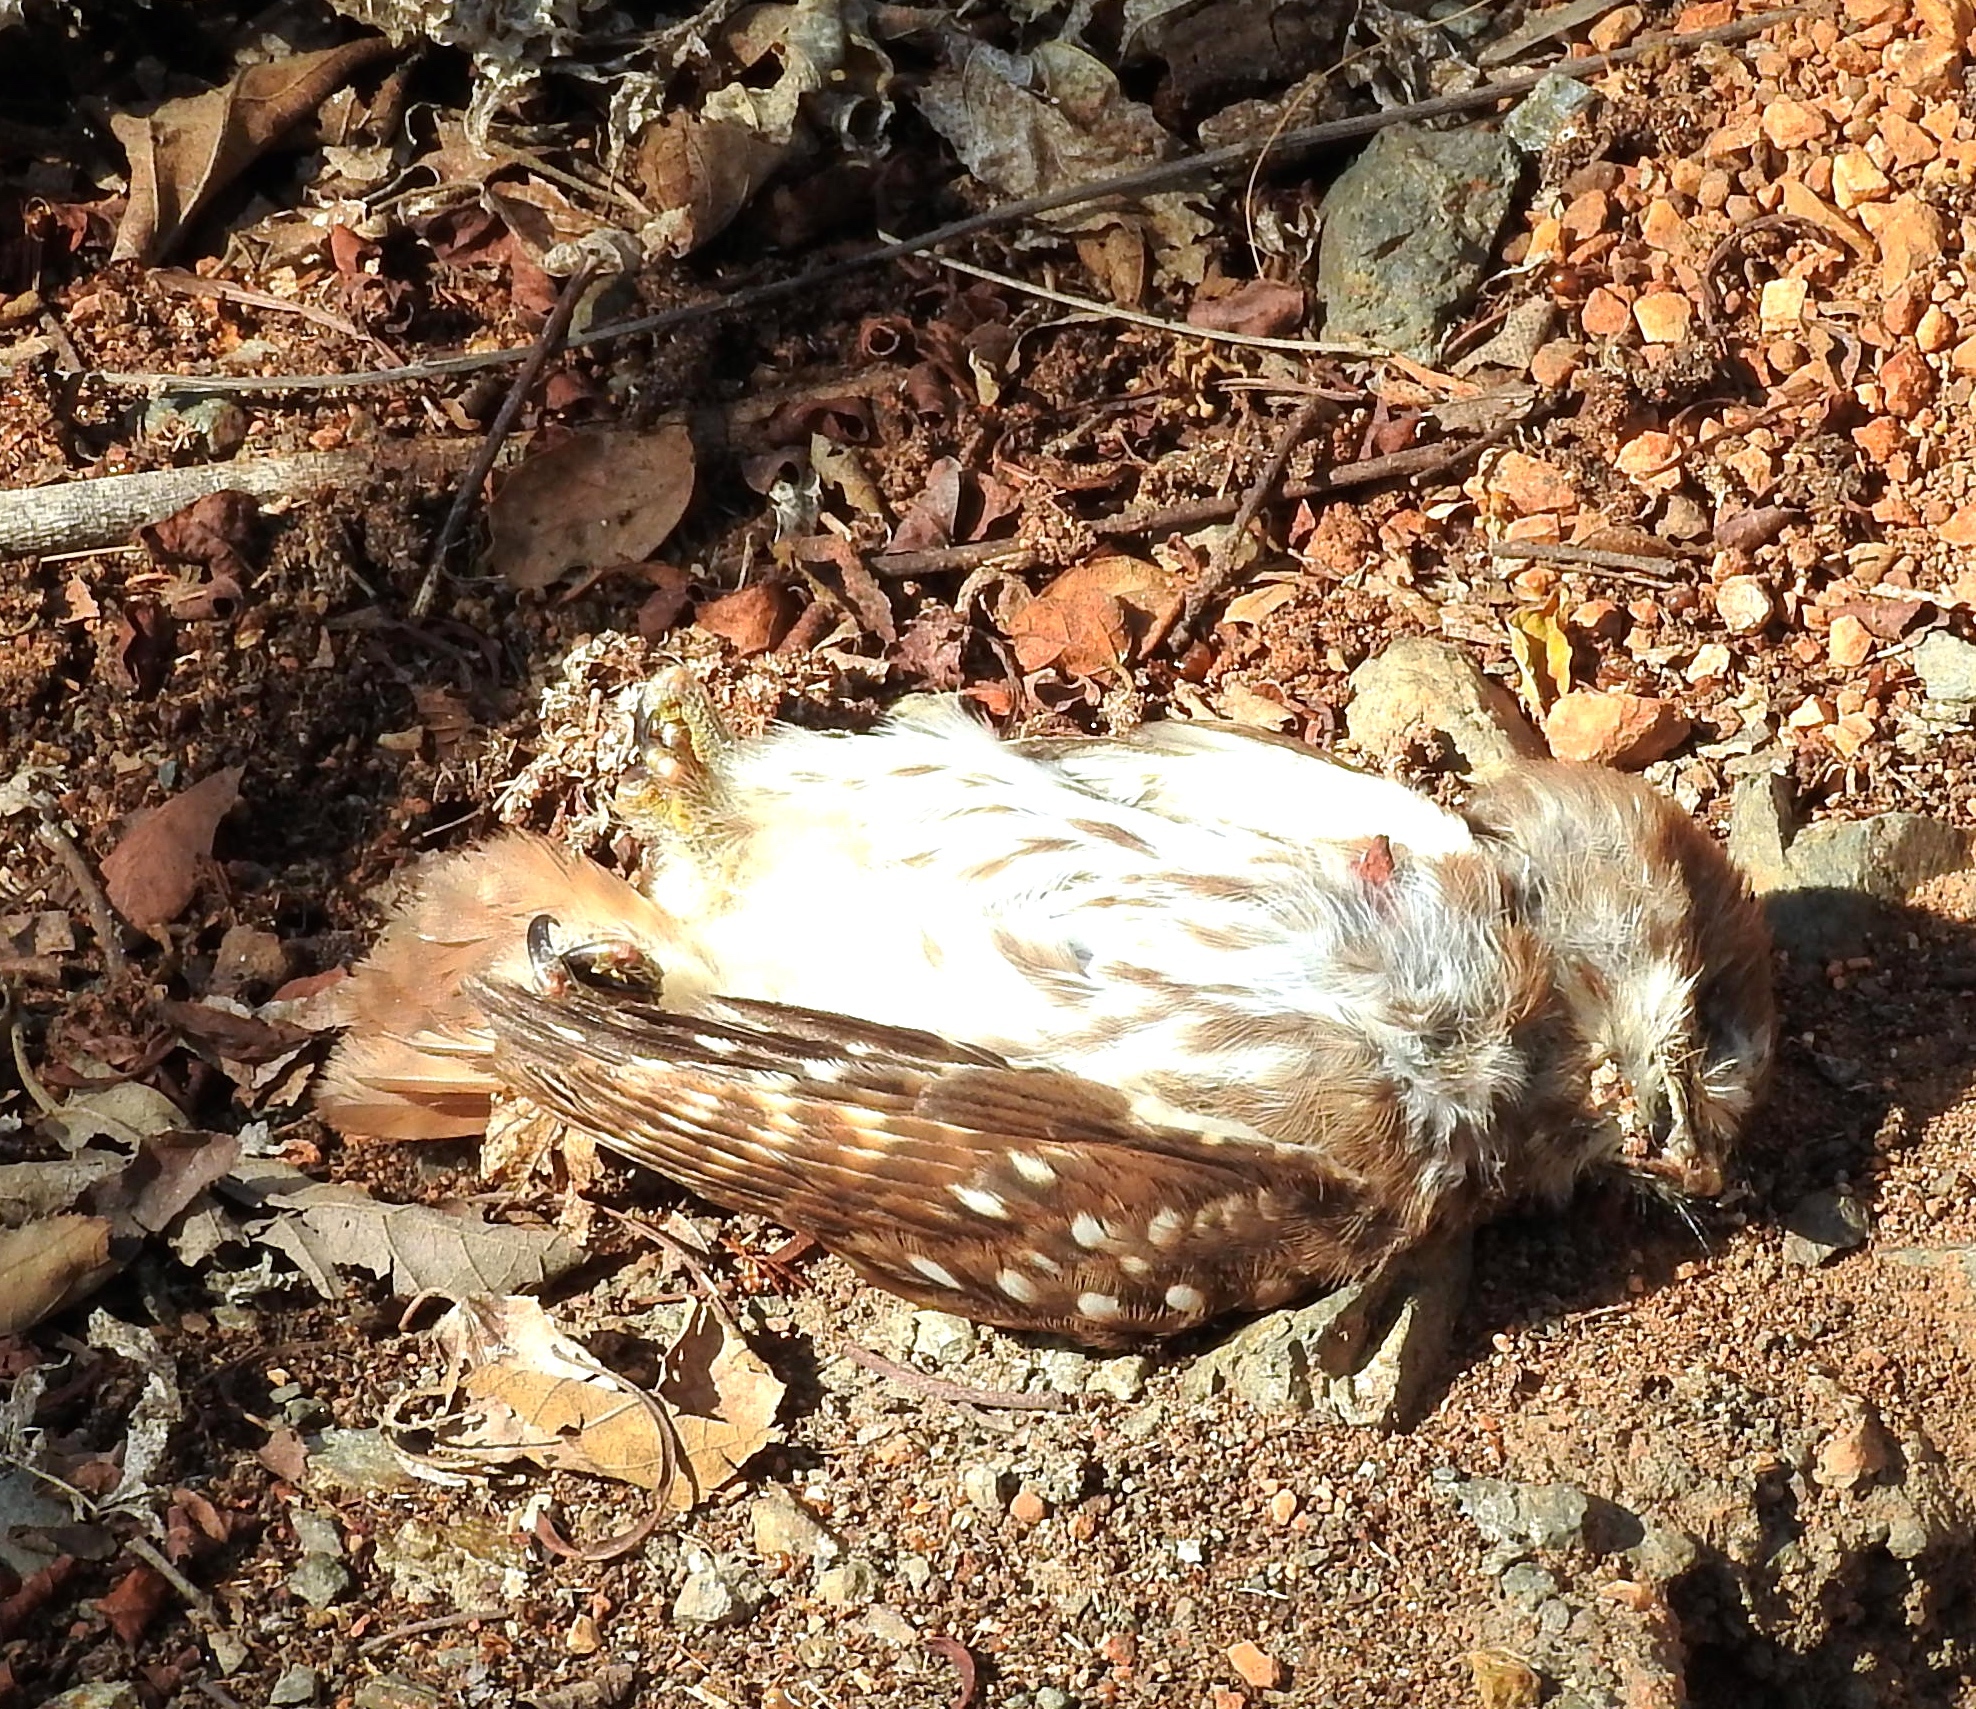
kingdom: Animalia
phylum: Chordata
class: Aves
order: Strigiformes
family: Strigidae
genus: Glaucidium
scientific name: Glaucidium brasilianum
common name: Ferruginous pygmy-owl
